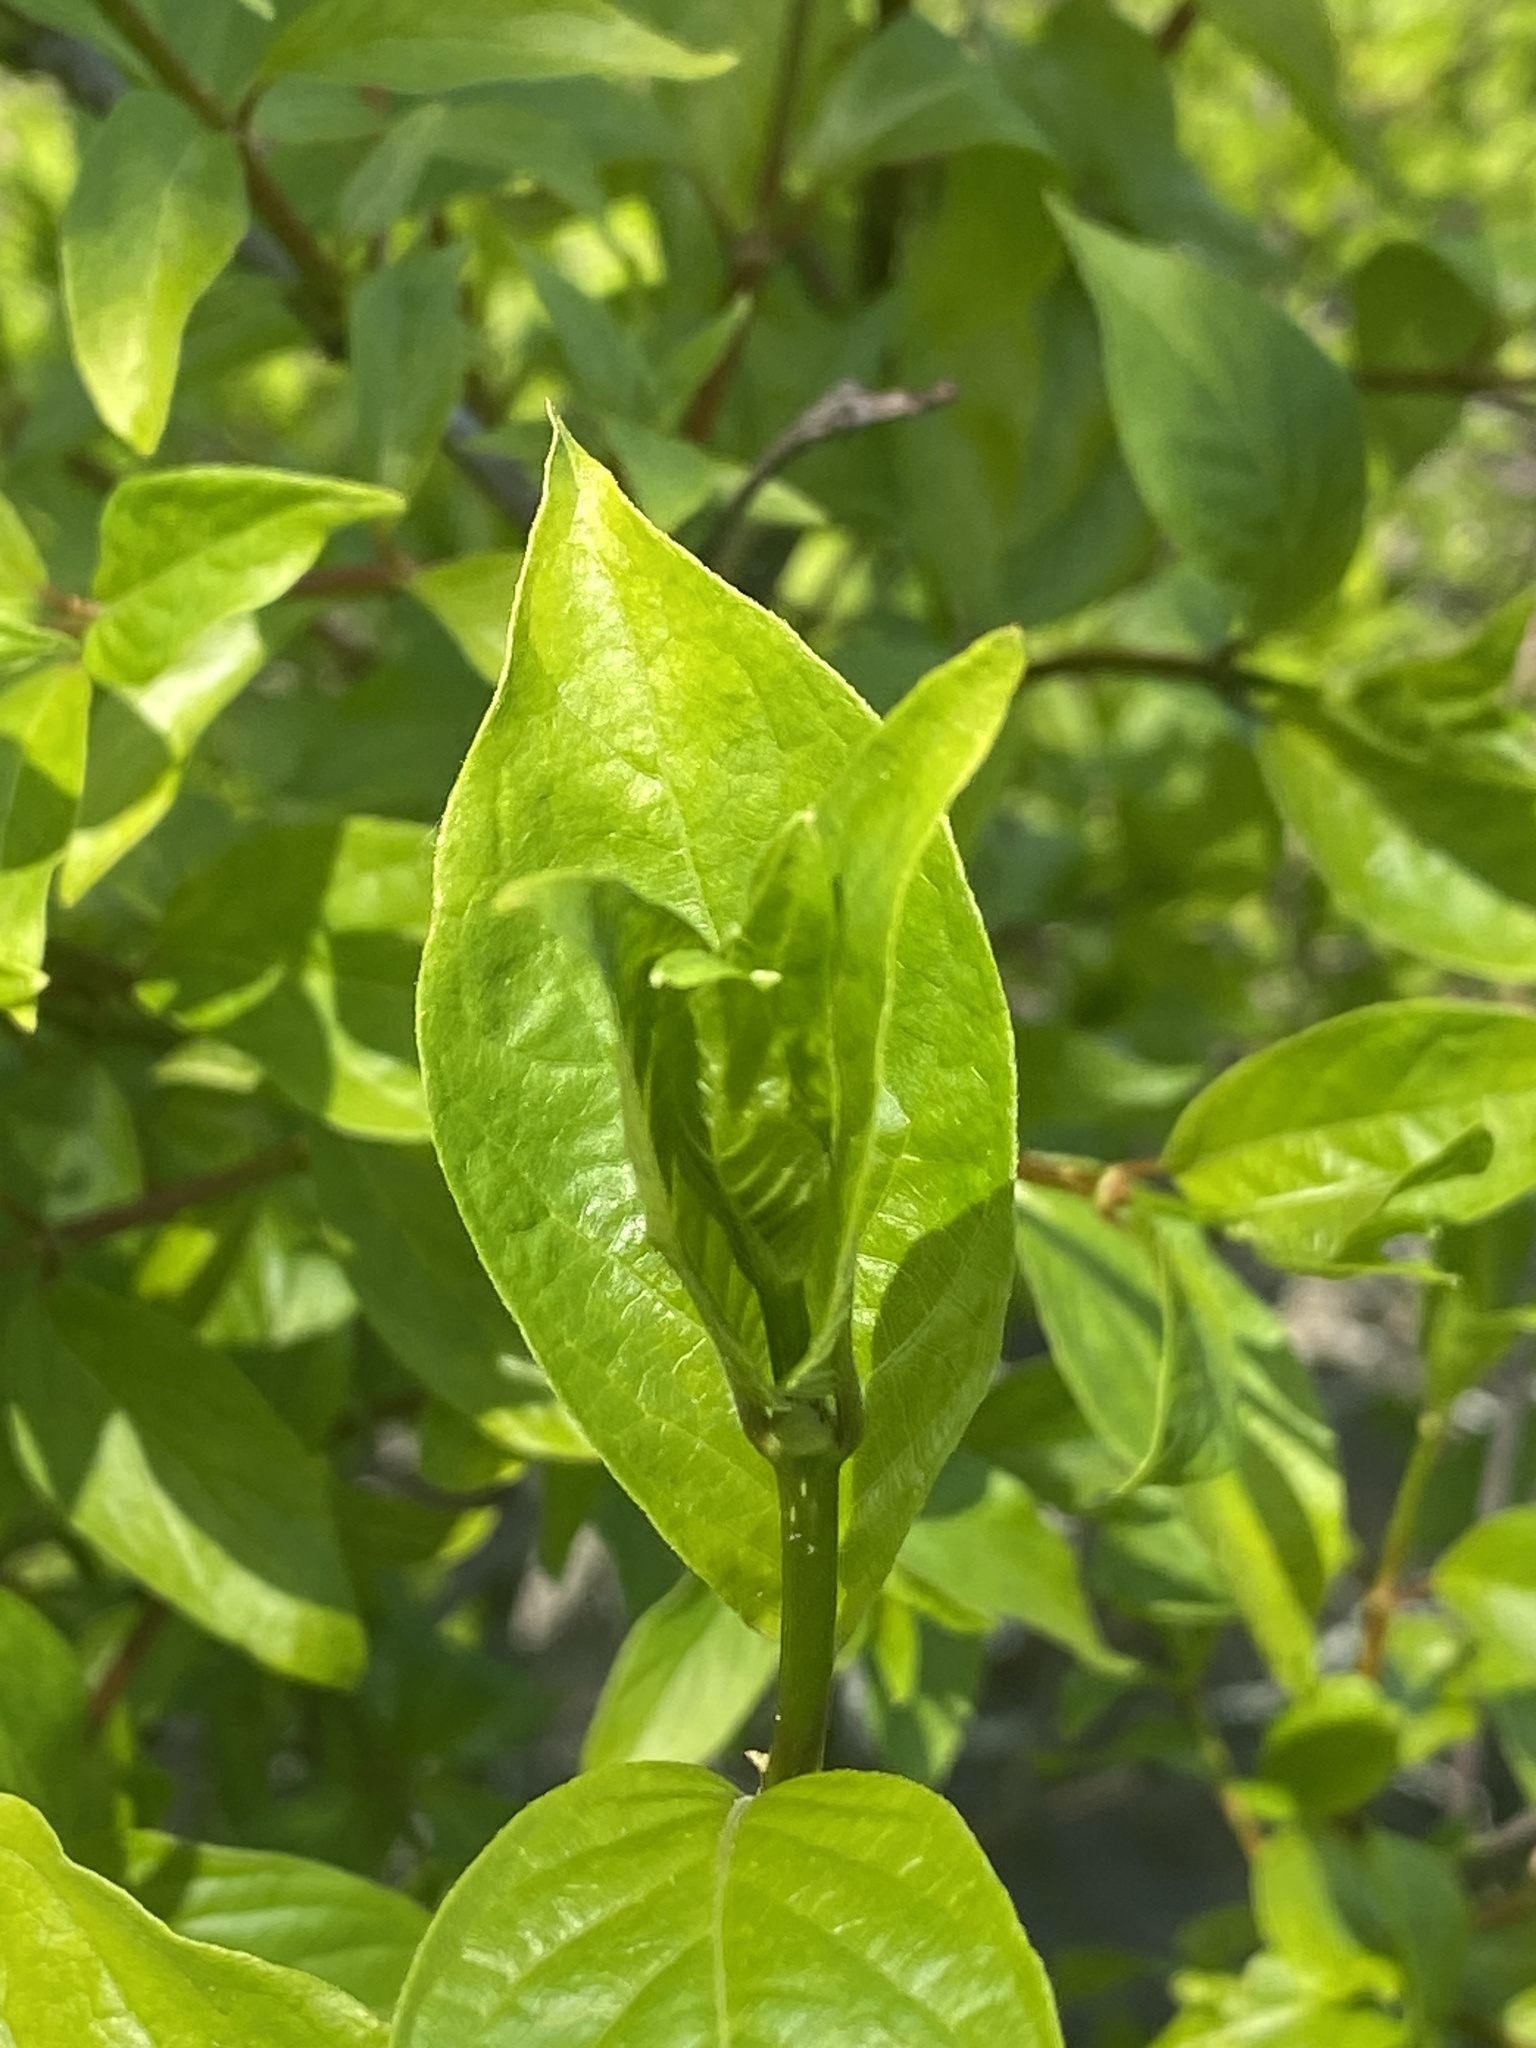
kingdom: Plantae
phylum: Tracheophyta
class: Magnoliopsida
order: Gentianales
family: Rubiaceae
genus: Cephalanthus
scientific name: Cephalanthus occidentalis
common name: Button-willow
